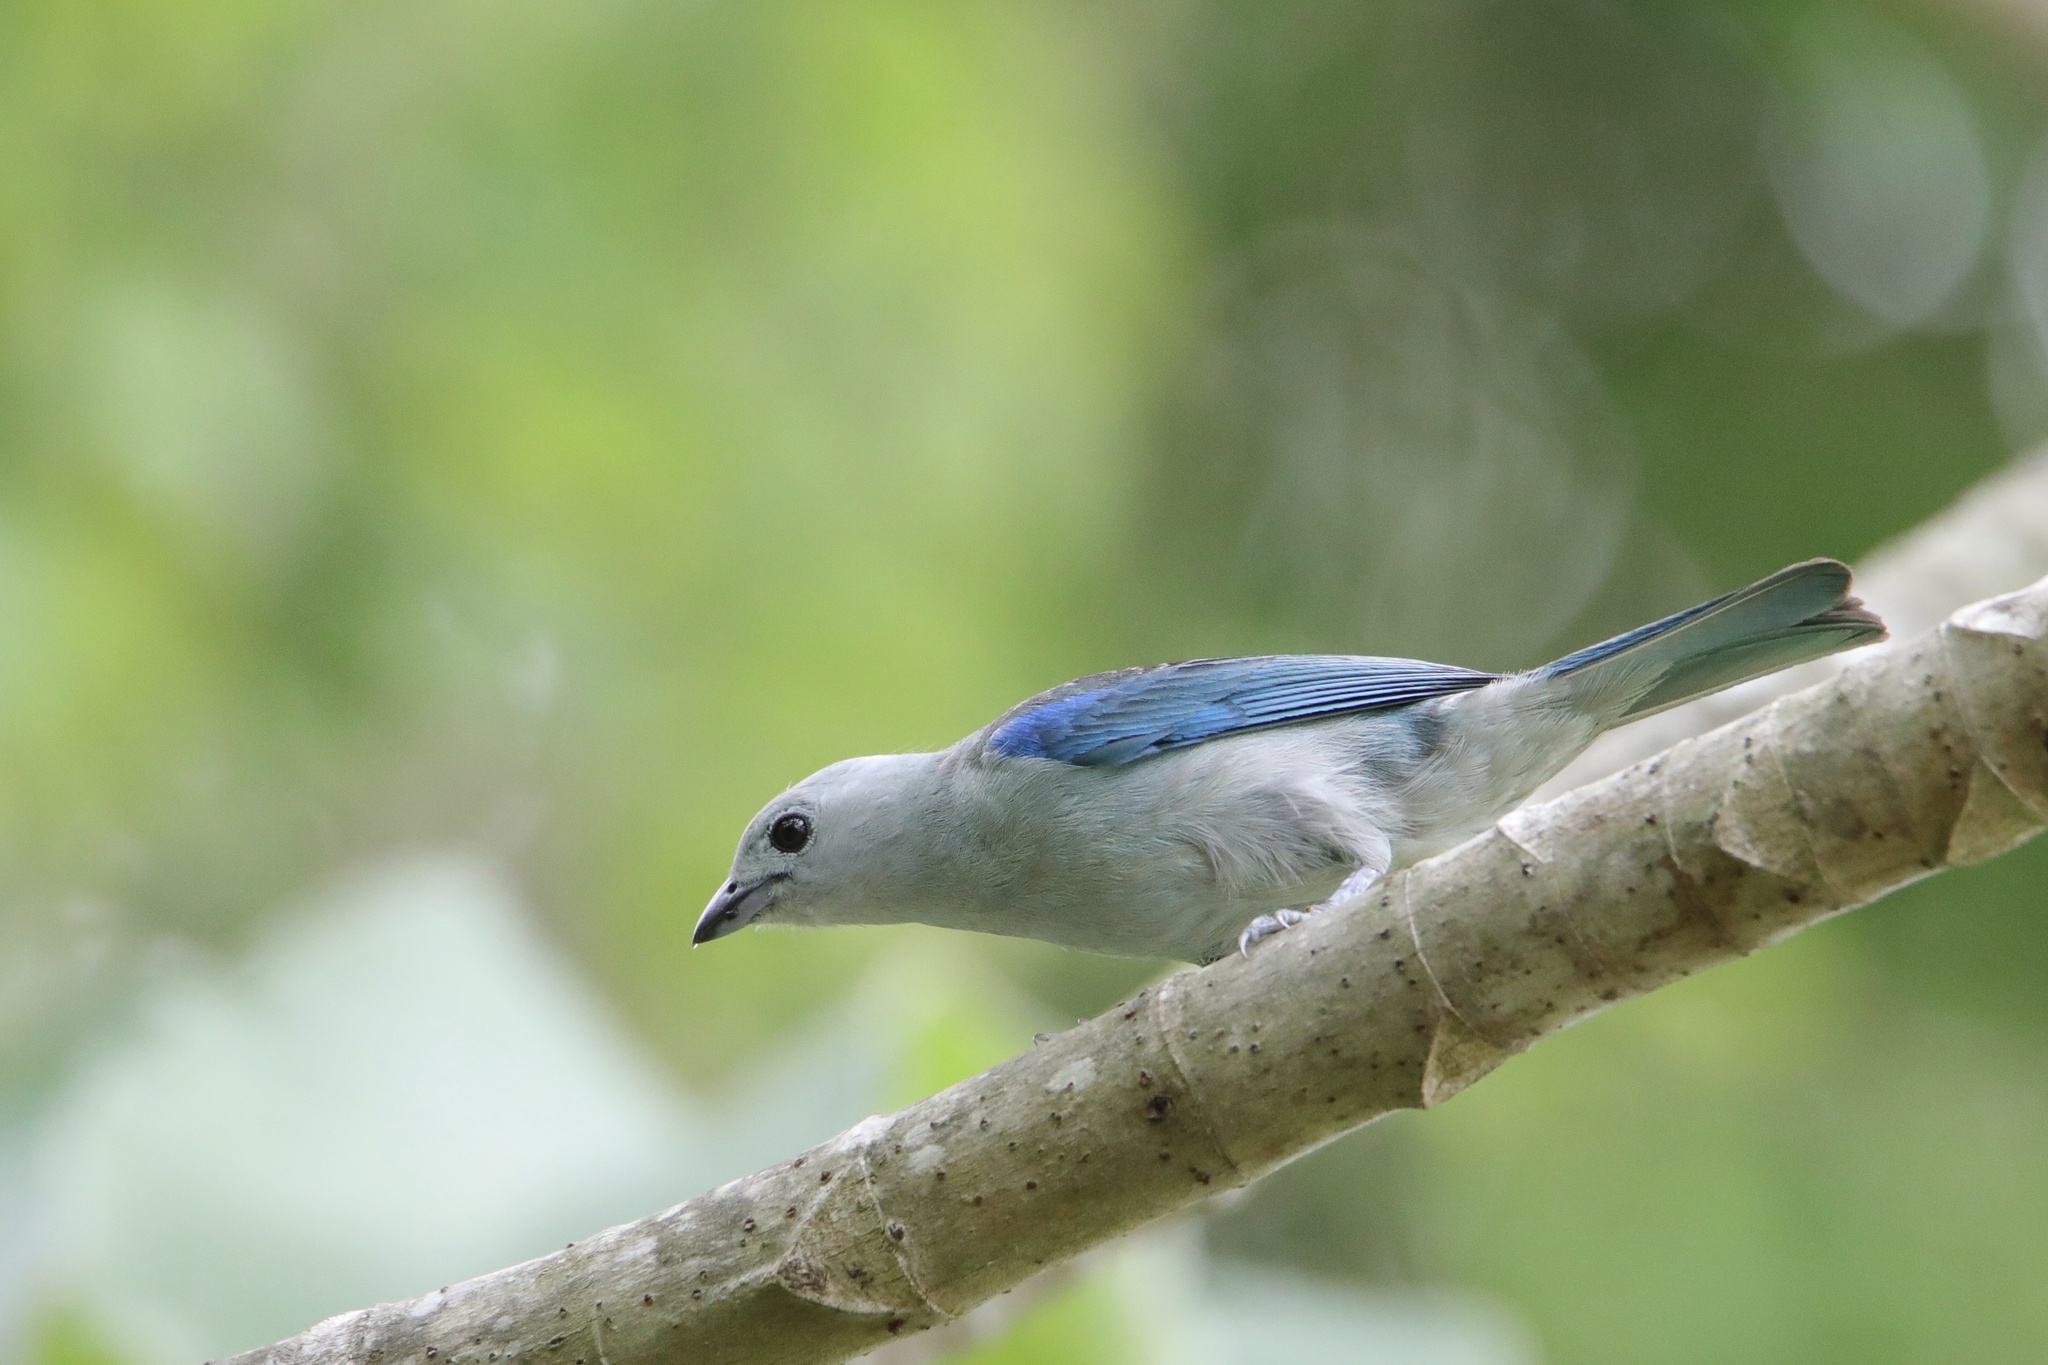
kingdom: Animalia
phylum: Chordata
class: Aves
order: Passeriformes
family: Thraupidae
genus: Thraupis
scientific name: Thraupis episcopus
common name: Blue-grey tanager
